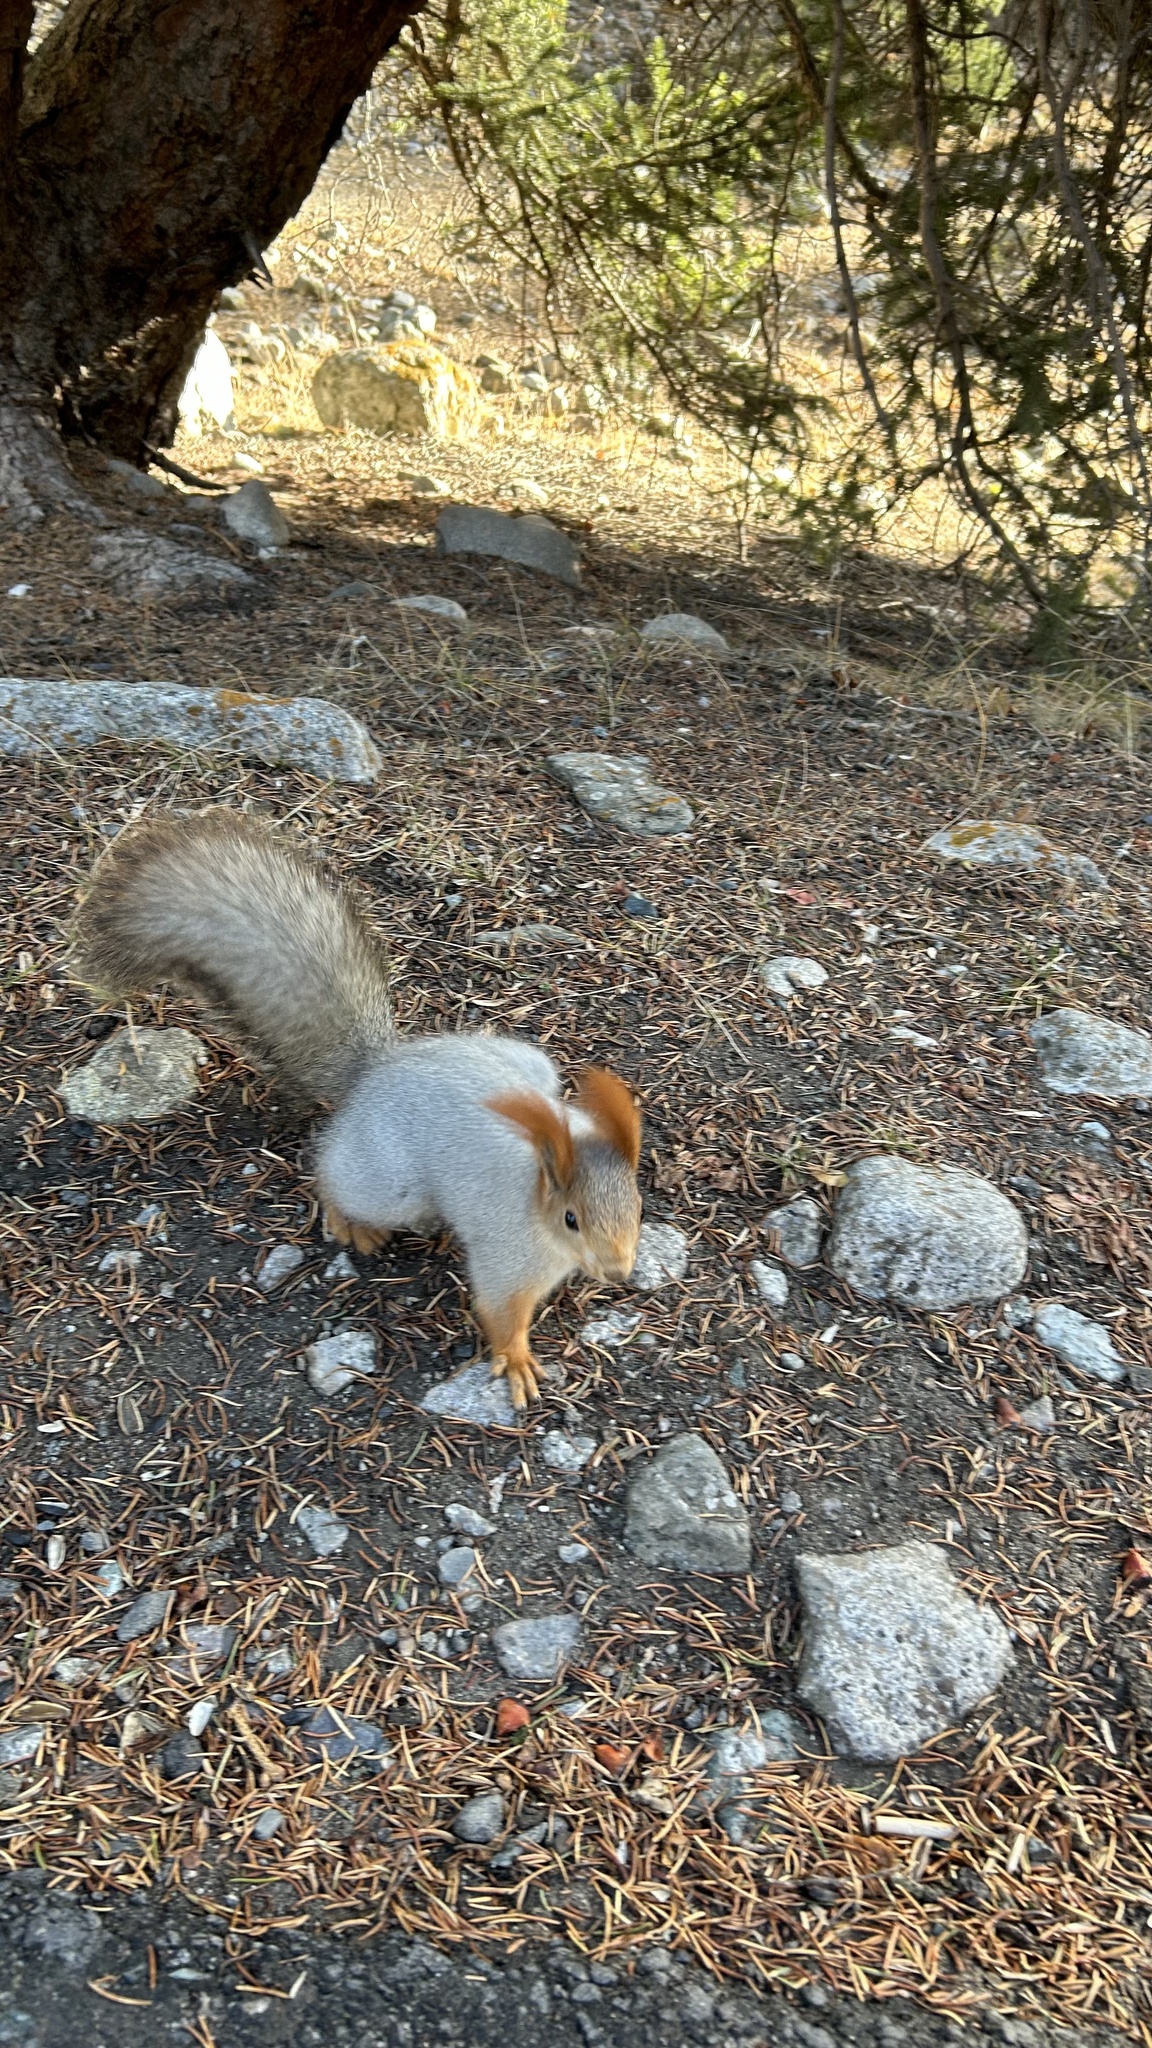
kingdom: Animalia
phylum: Chordata
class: Mammalia
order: Rodentia
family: Sciuridae
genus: Sciurus
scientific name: Sciurus vulgaris
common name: Eurasian red squirrel
